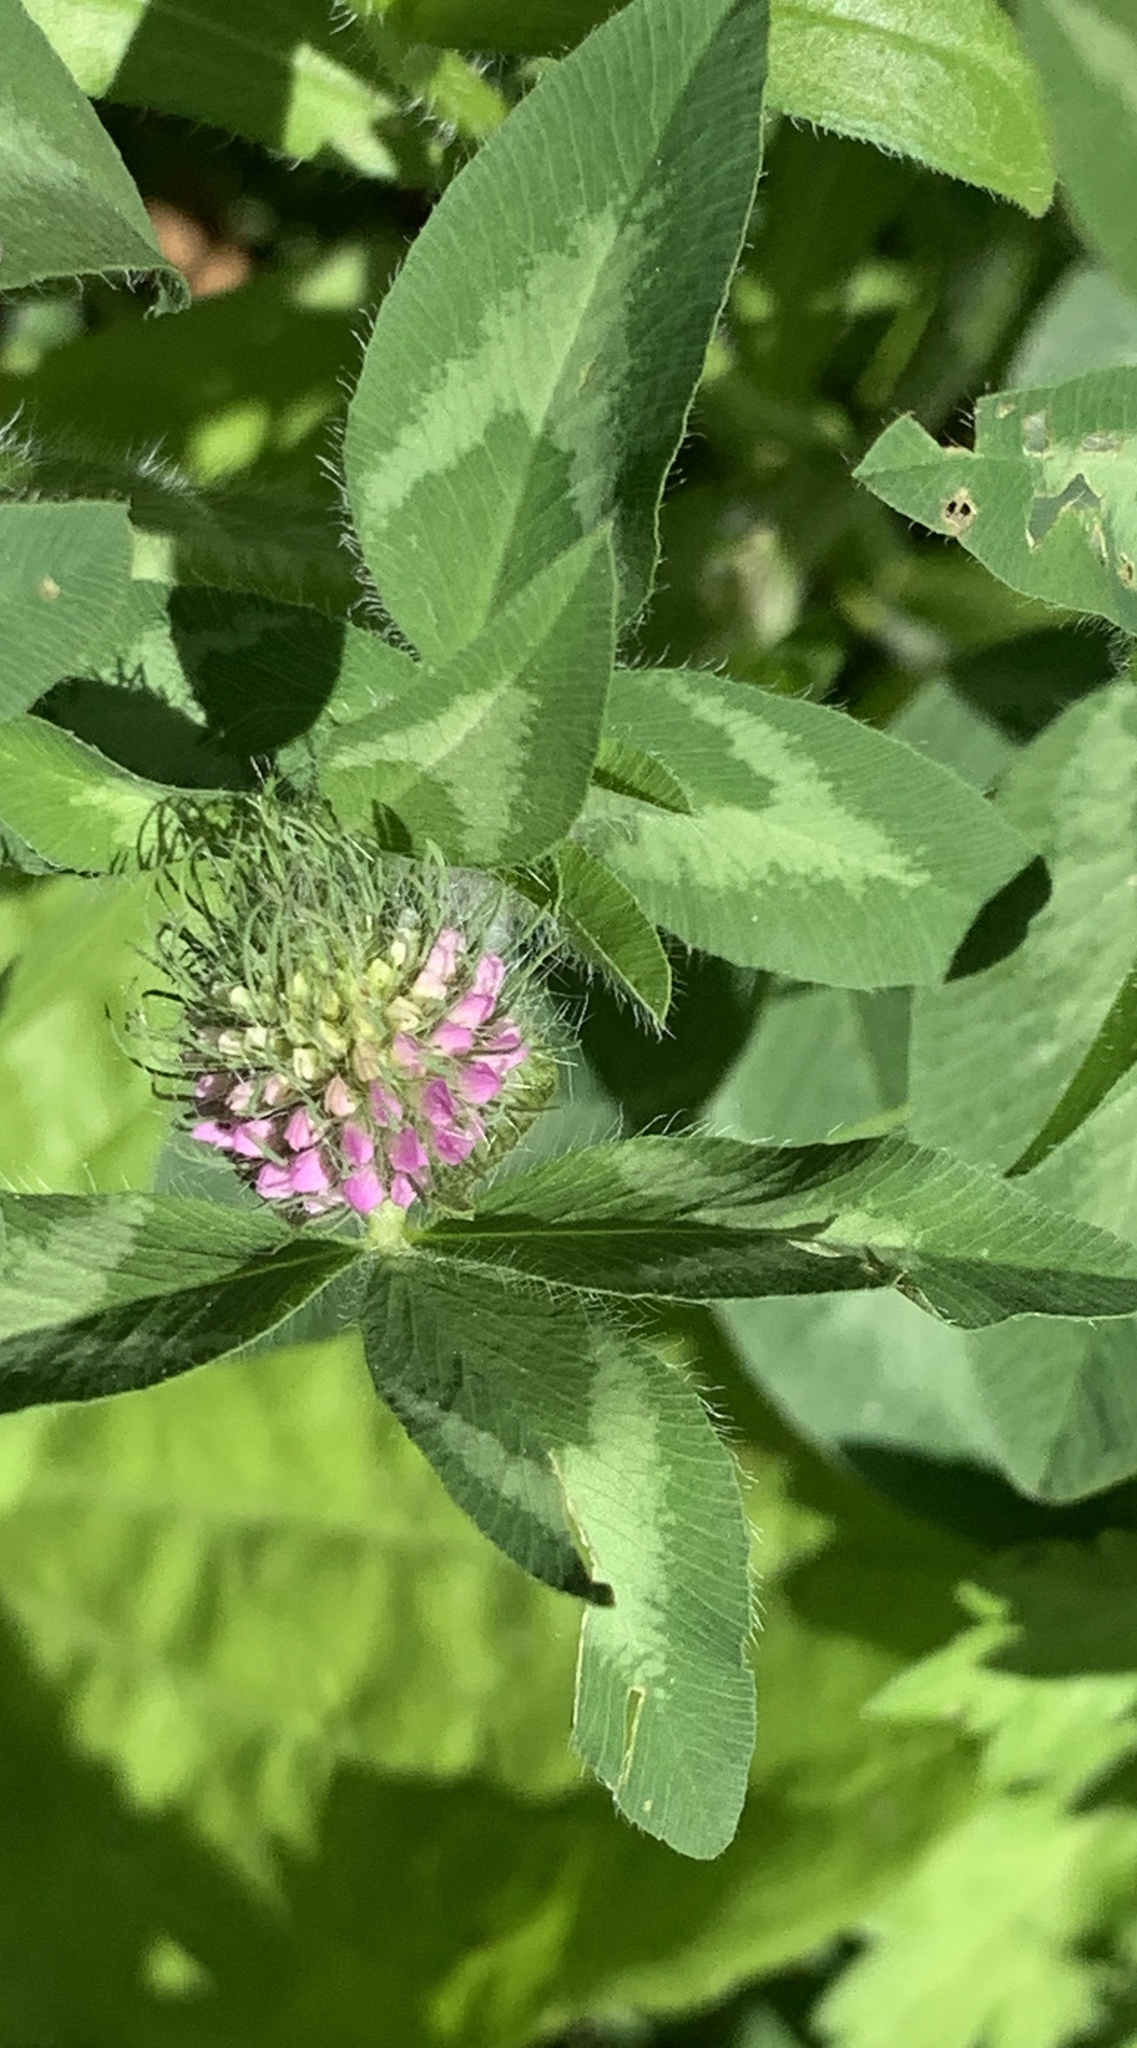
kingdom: Plantae
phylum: Tracheophyta
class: Magnoliopsida
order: Fabales
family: Fabaceae
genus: Trifolium
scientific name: Trifolium pratense
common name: Red clover
